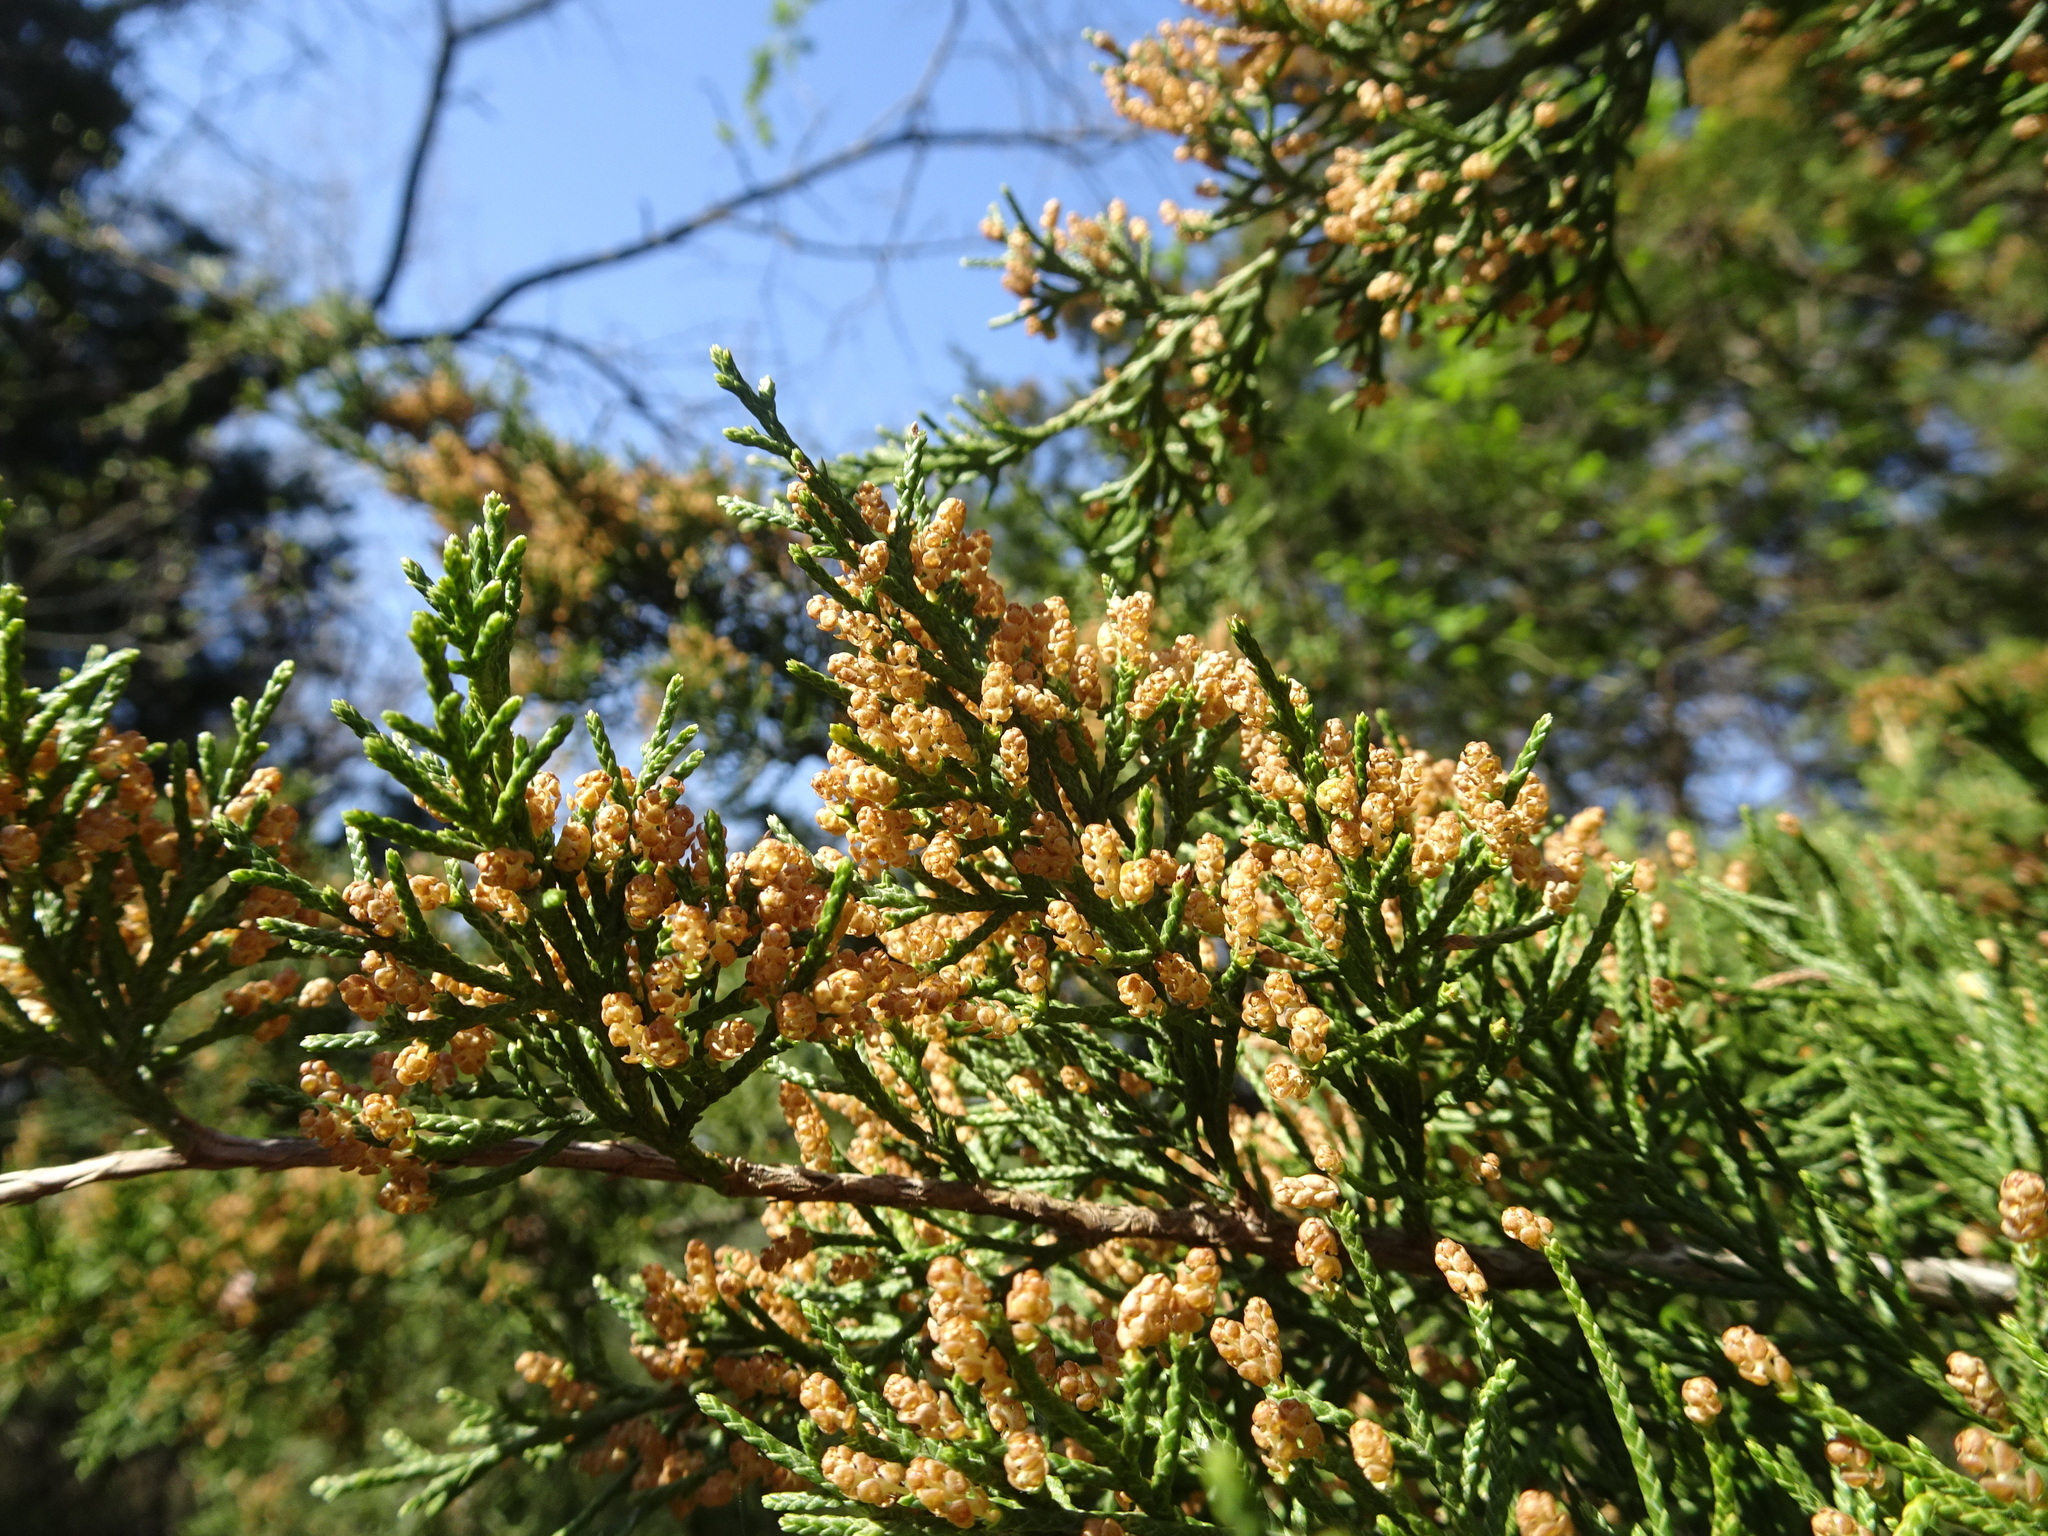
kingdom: Plantae
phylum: Tracheophyta
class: Pinopsida
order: Pinales
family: Cupressaceae
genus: Juniperus
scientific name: Juniperus virginiana
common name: Red juniper
